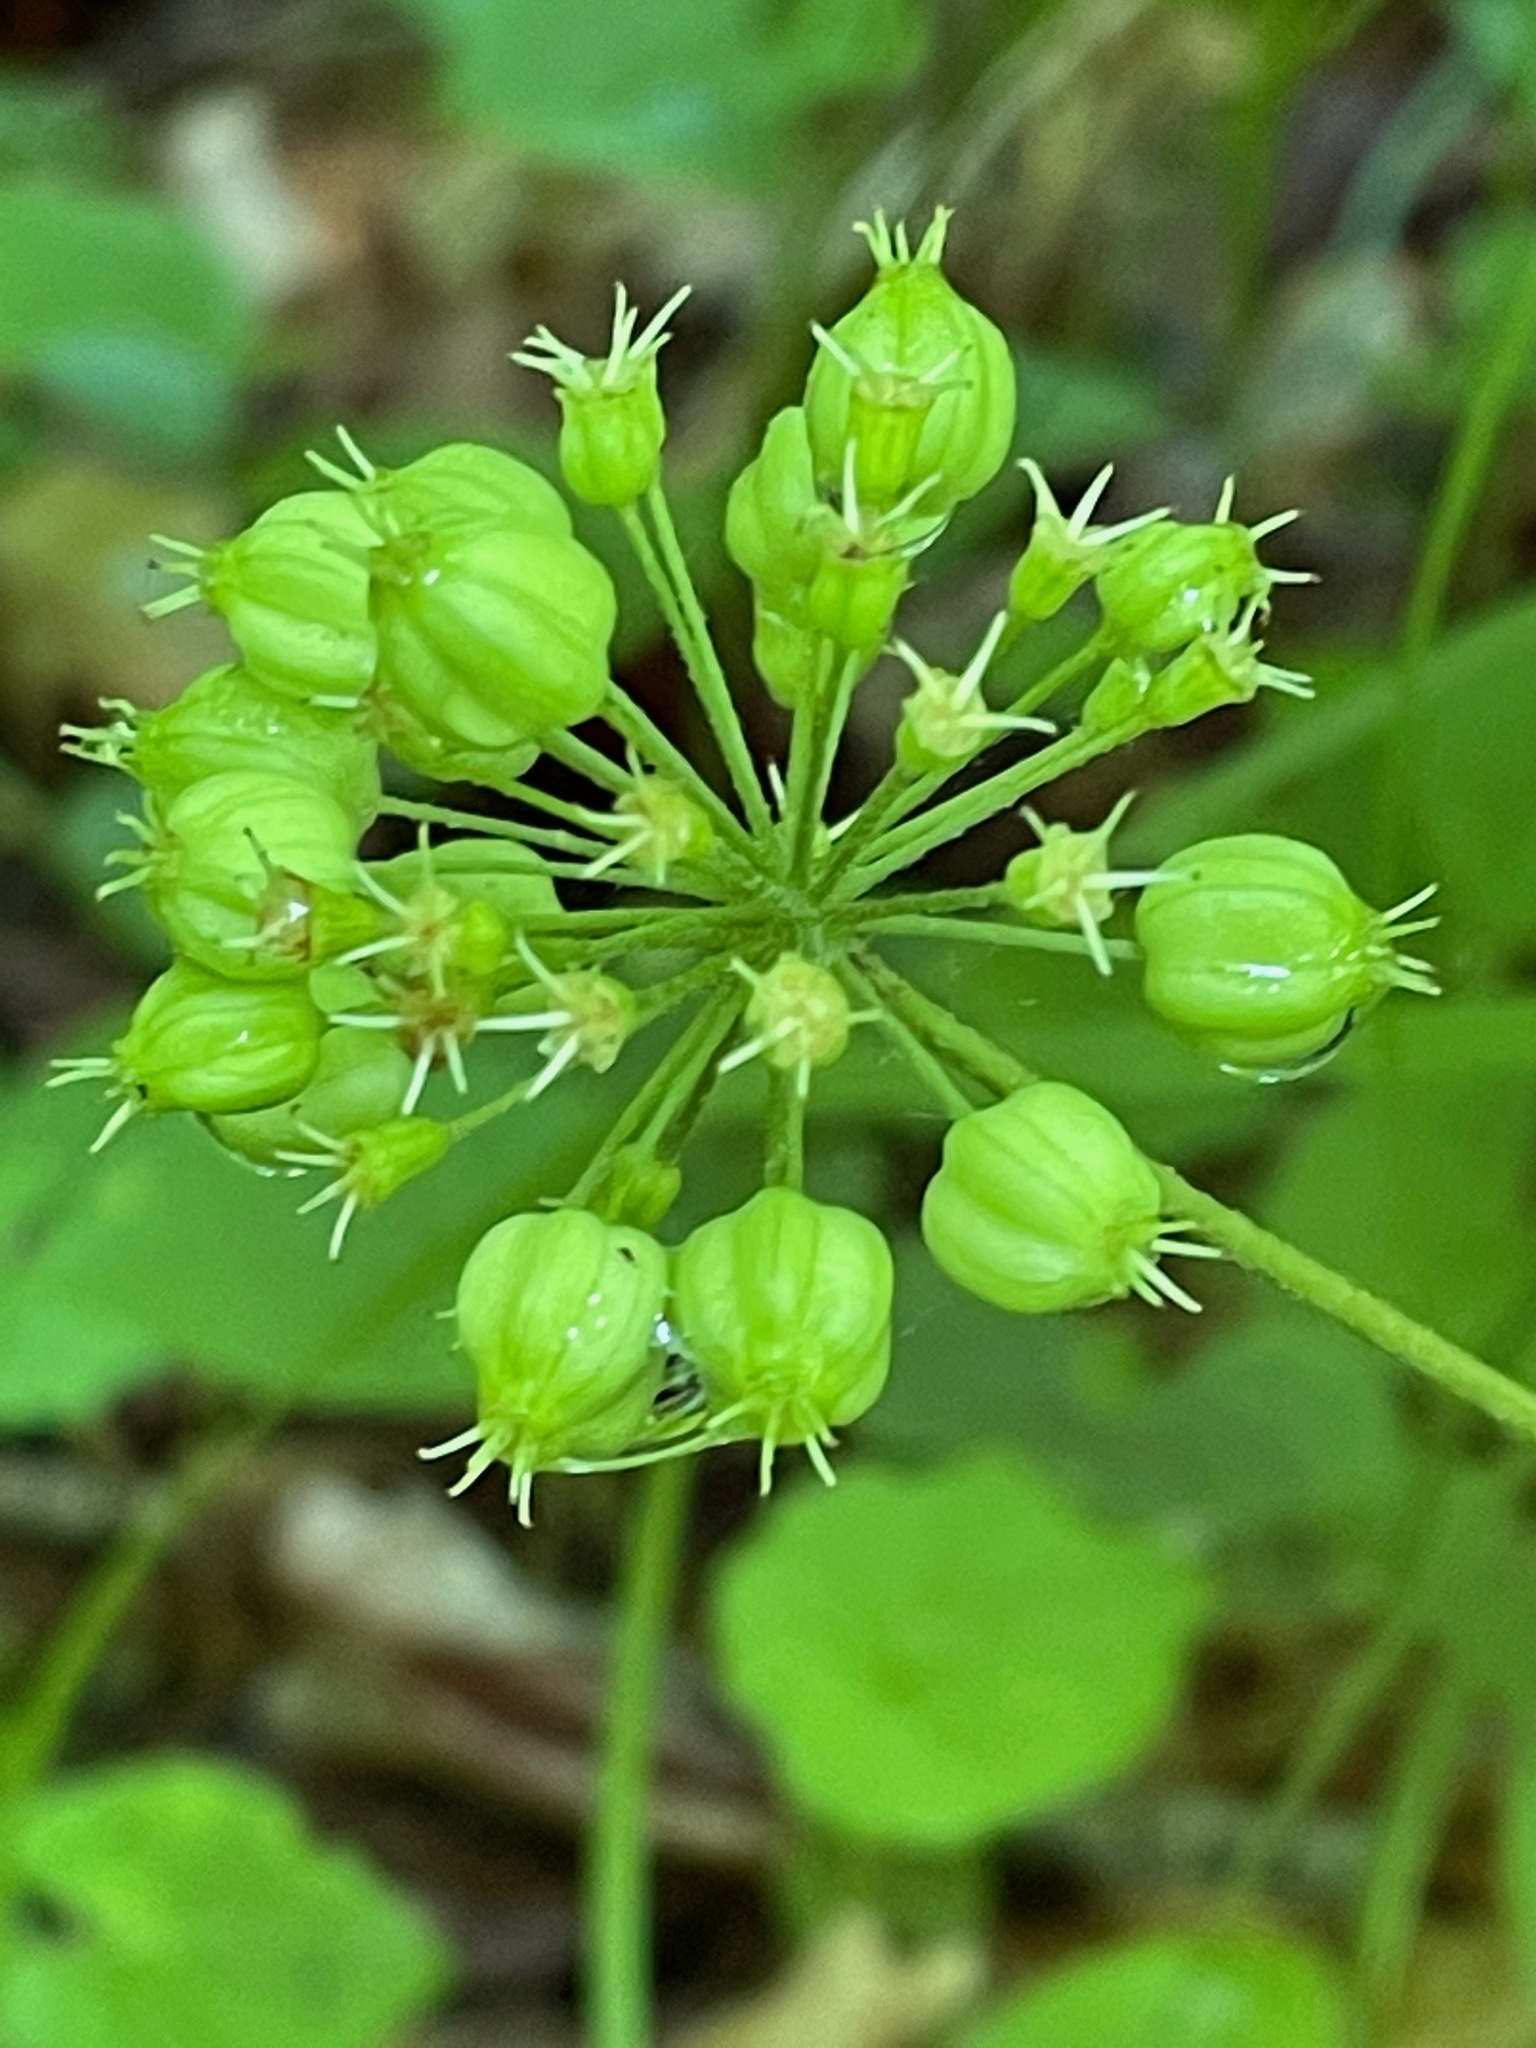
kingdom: Plantae
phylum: Tracheophyta
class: Magnoliopsida
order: Apiales
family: Araliaceae
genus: Aralia
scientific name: Aralia nudicaulis
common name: Wild sarsaparilla
